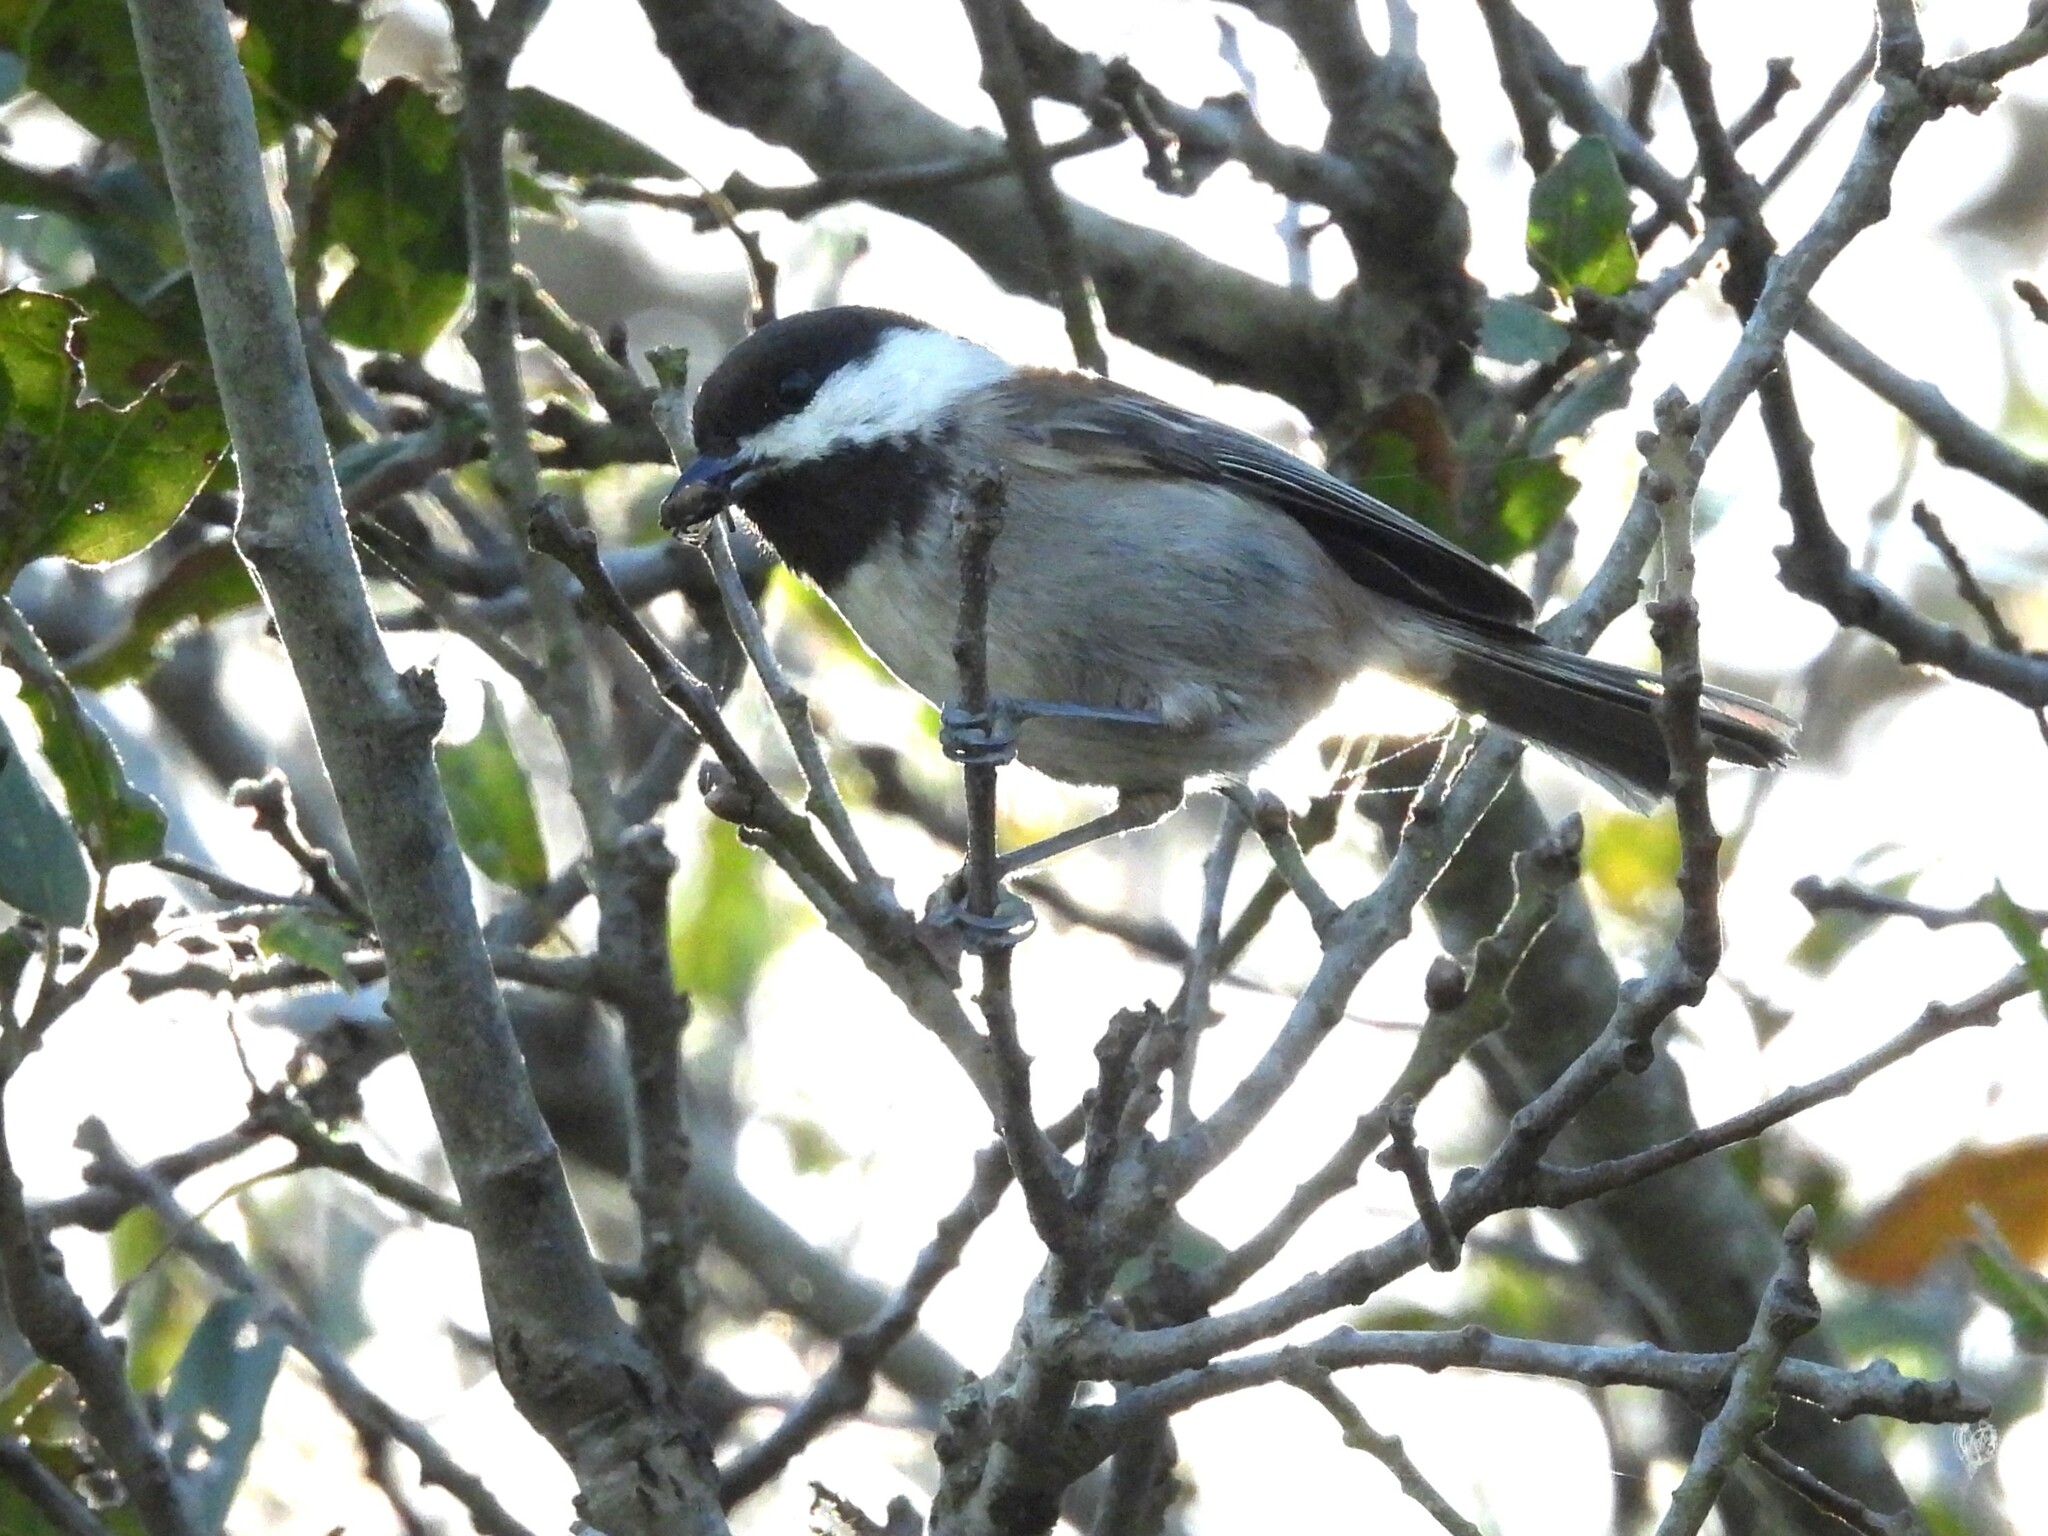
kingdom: Animalia
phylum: Chordata
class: Aves
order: Passeriformes
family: Paridae
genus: Poecile
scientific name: Poecile rufescens
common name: Chestnut-backed chickadee
